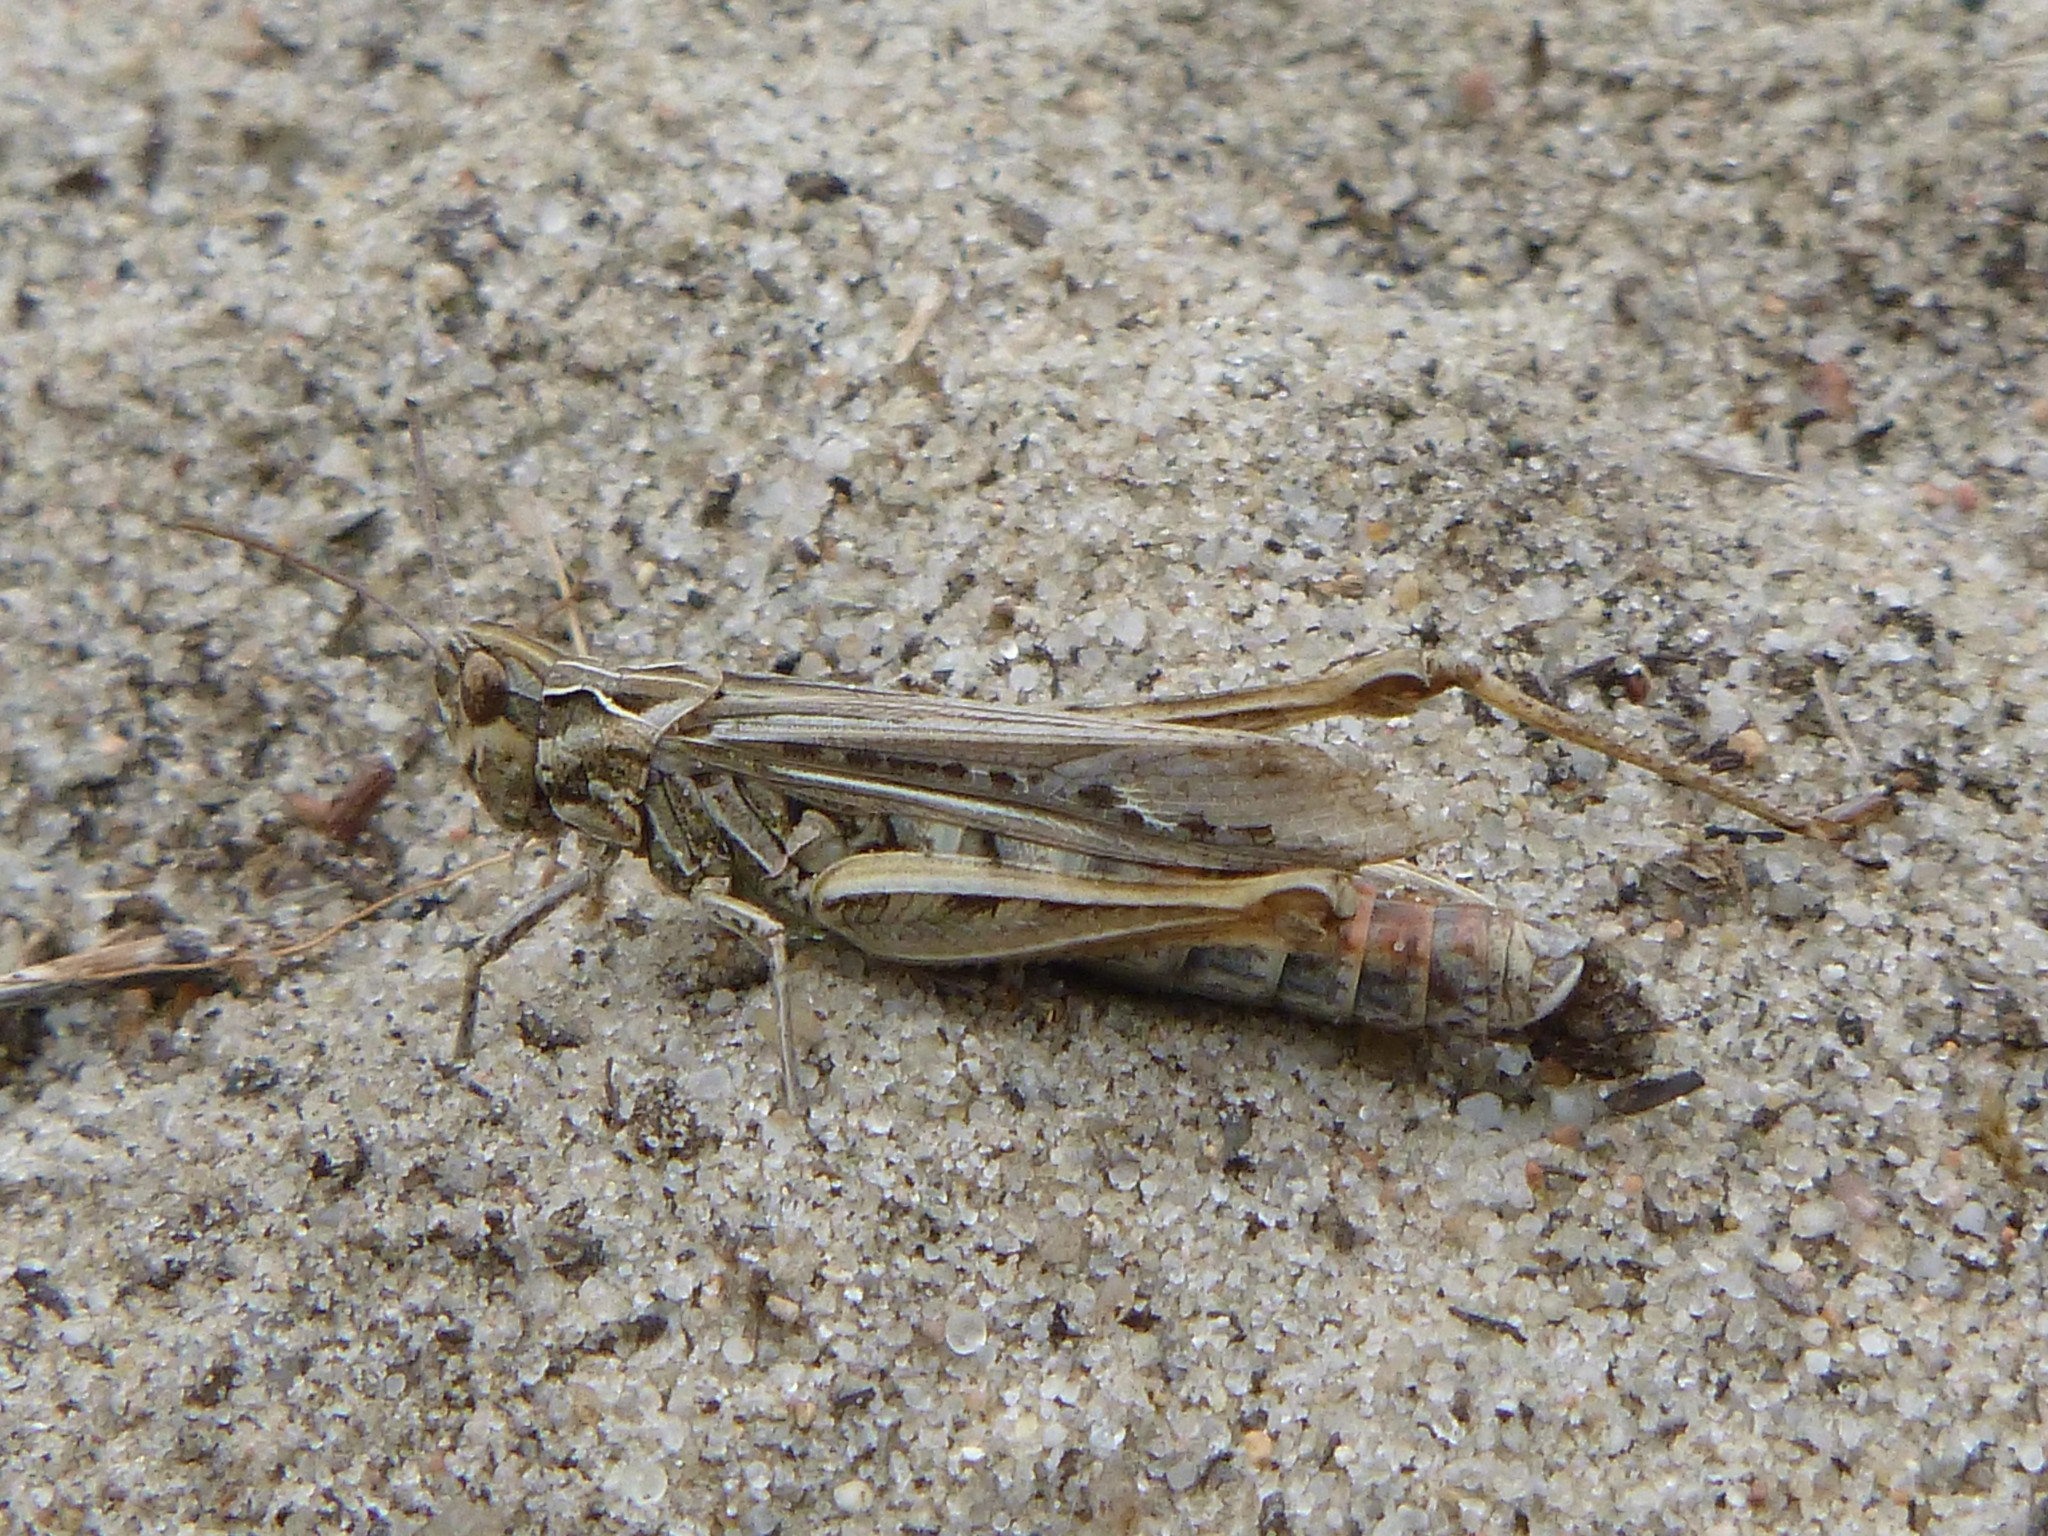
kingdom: Animalia
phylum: Arthropoda
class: Insecta
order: Orthoptera
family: Acrididae
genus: Chorthippus
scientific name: Chorthippus brunneus
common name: Field grasshopper
